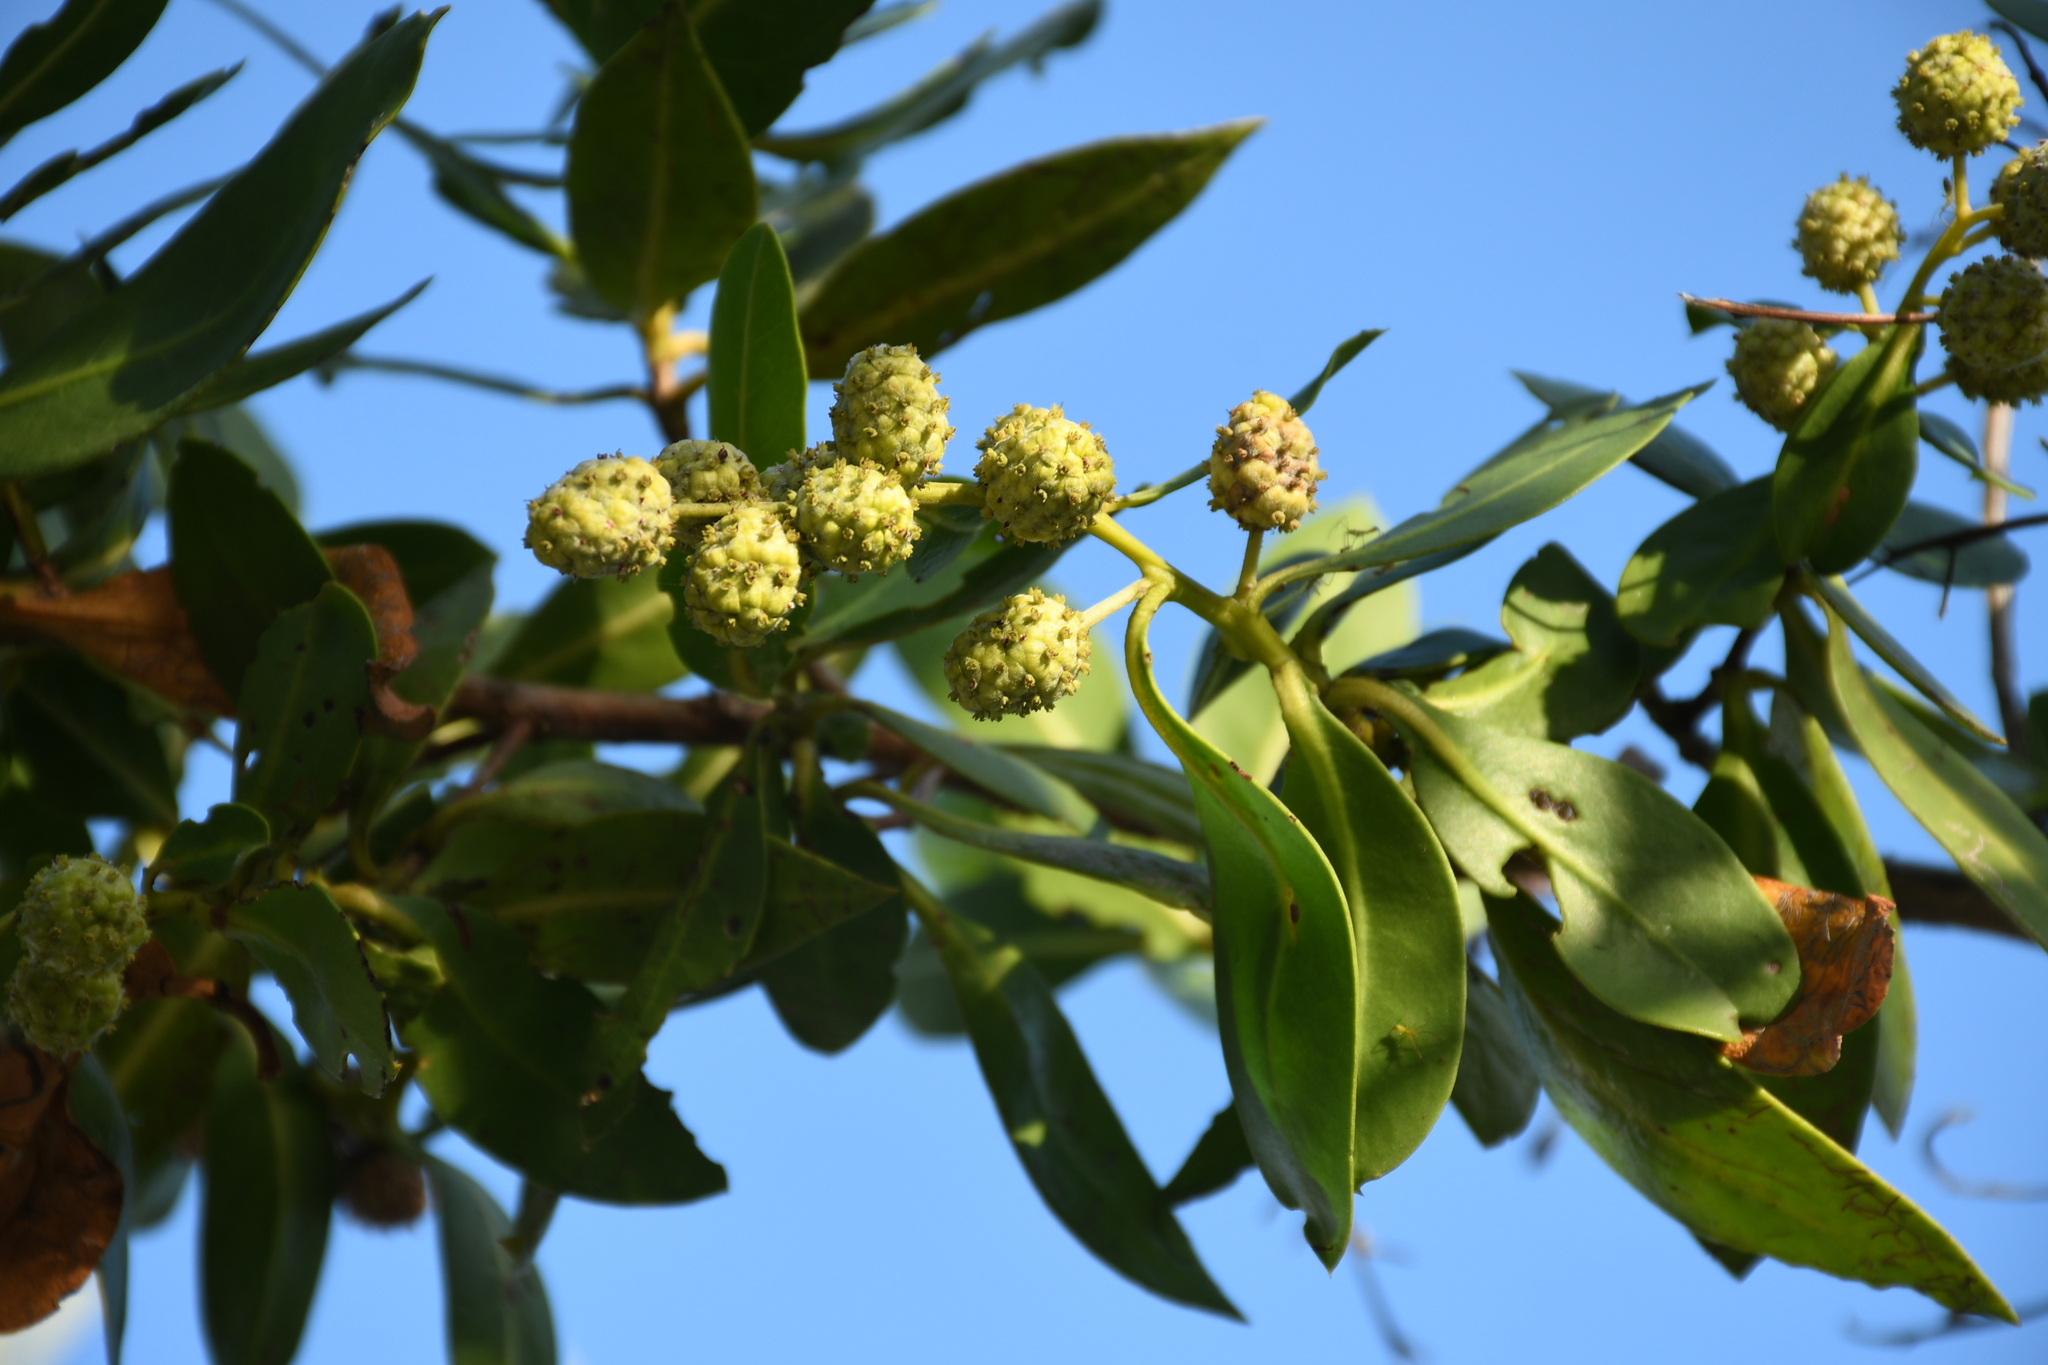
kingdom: Plantae
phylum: Tracheophyta
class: Magnoliopsida
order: Myrtales
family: Combretaceae
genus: Conocarpus
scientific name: Conocarpus erectus
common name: Button mangrove
